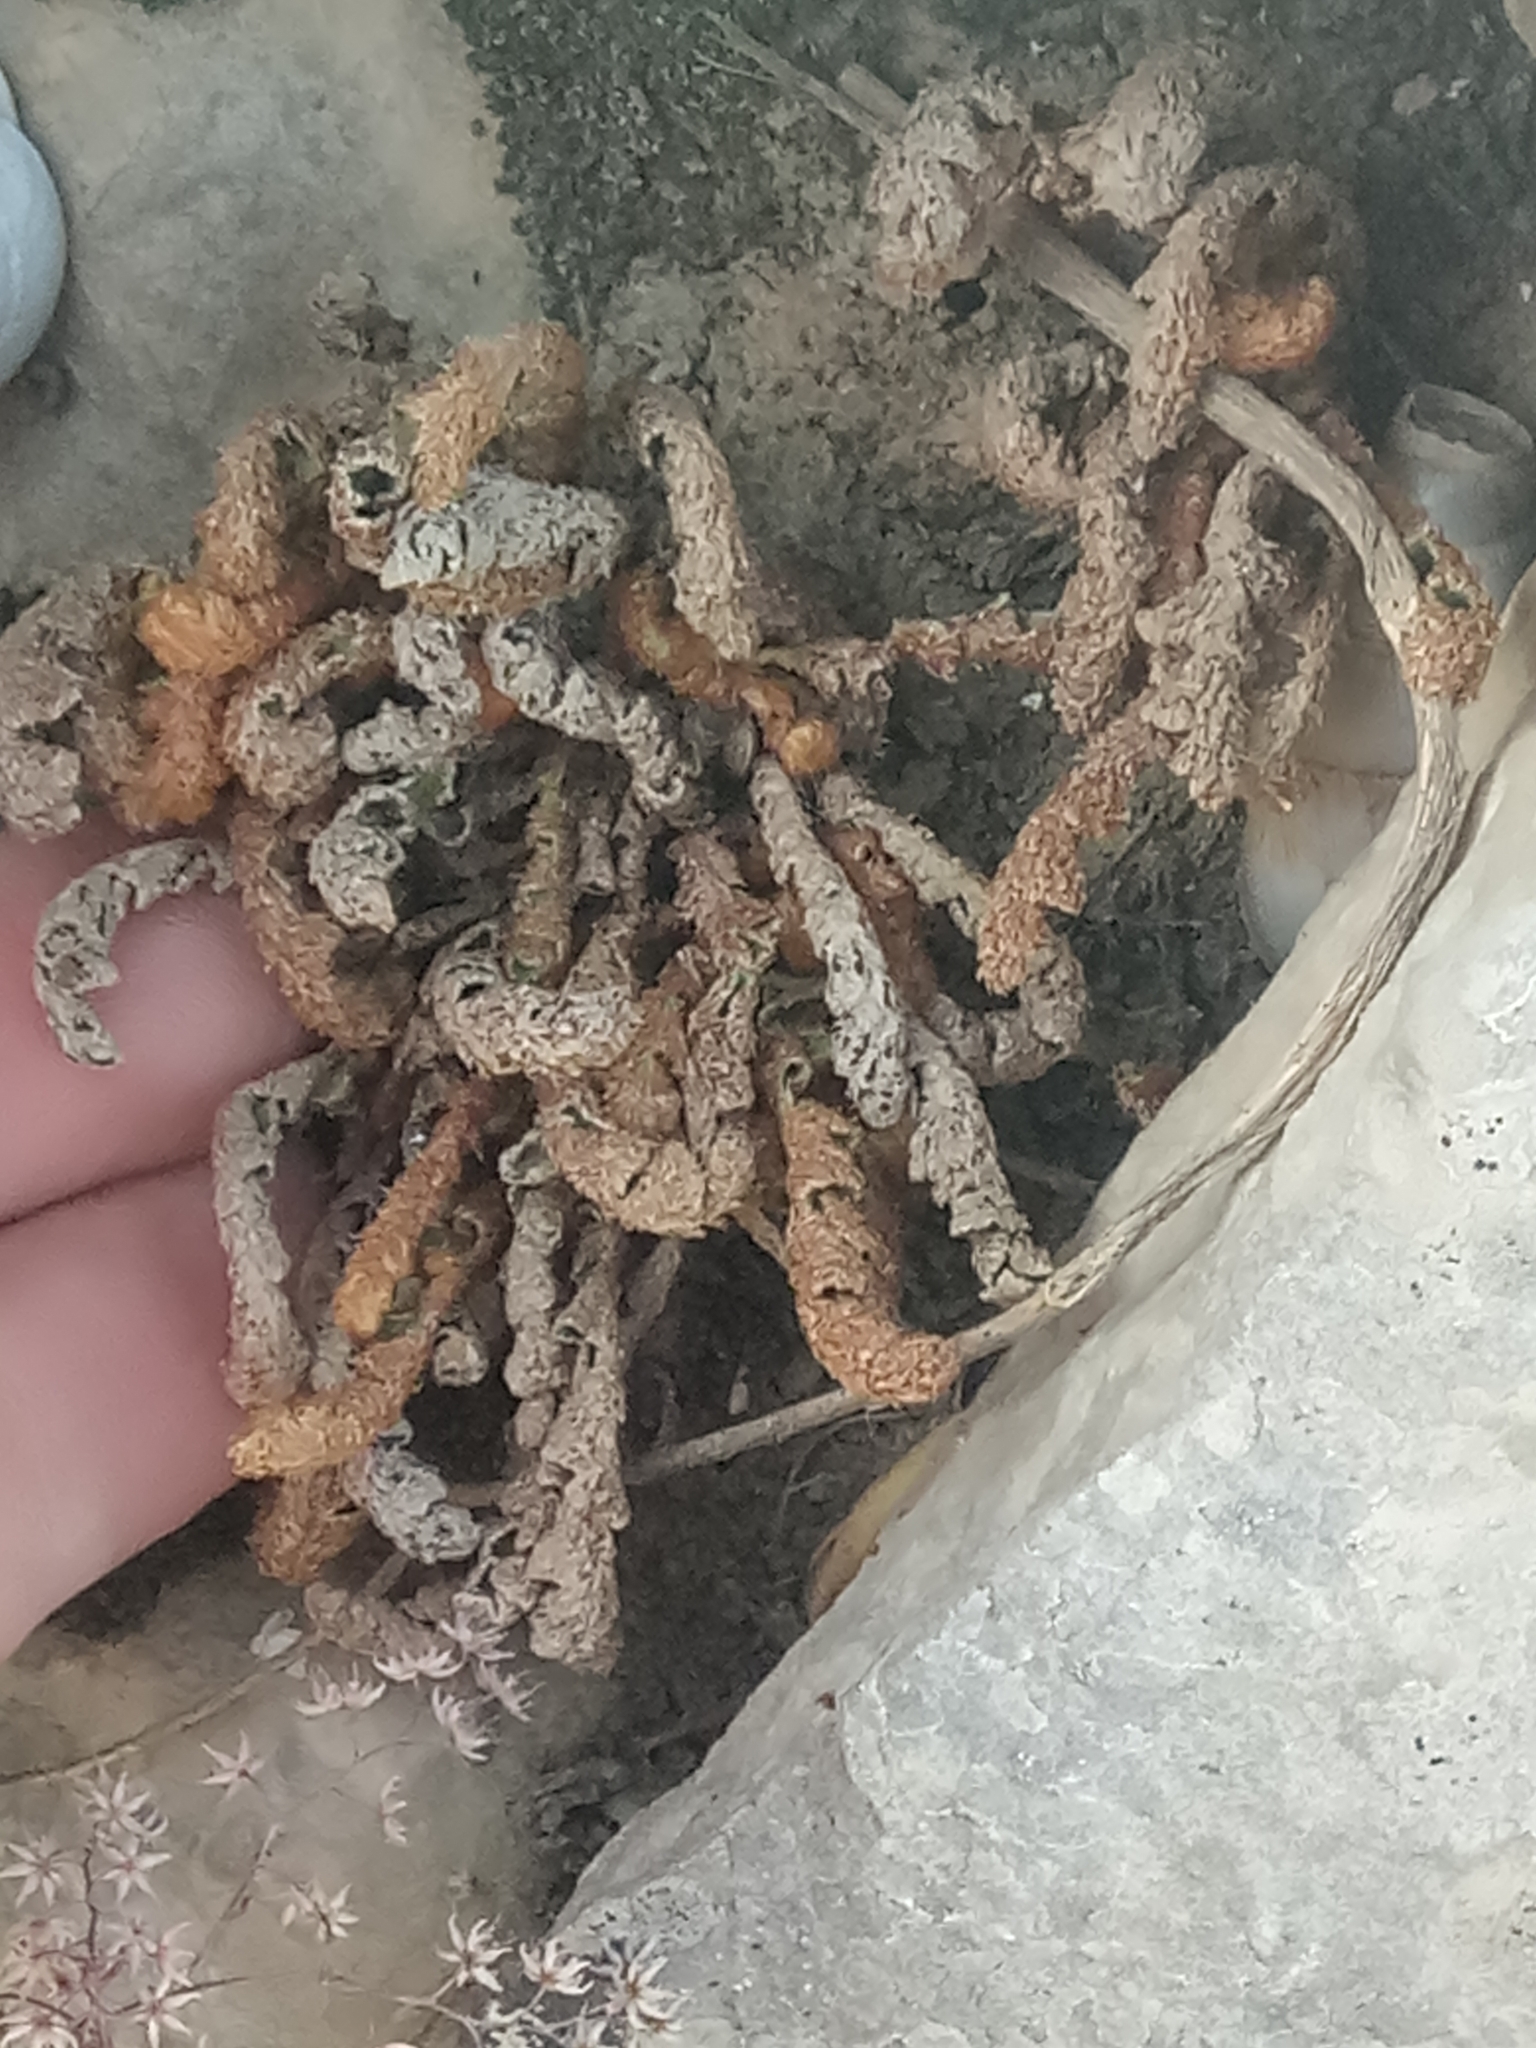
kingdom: Plantae
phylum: Tracheophyta
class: Polypodiopsida
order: Polypodiales
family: Aspleniaceae
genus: Asplenium
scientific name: Asplenium ceterach
